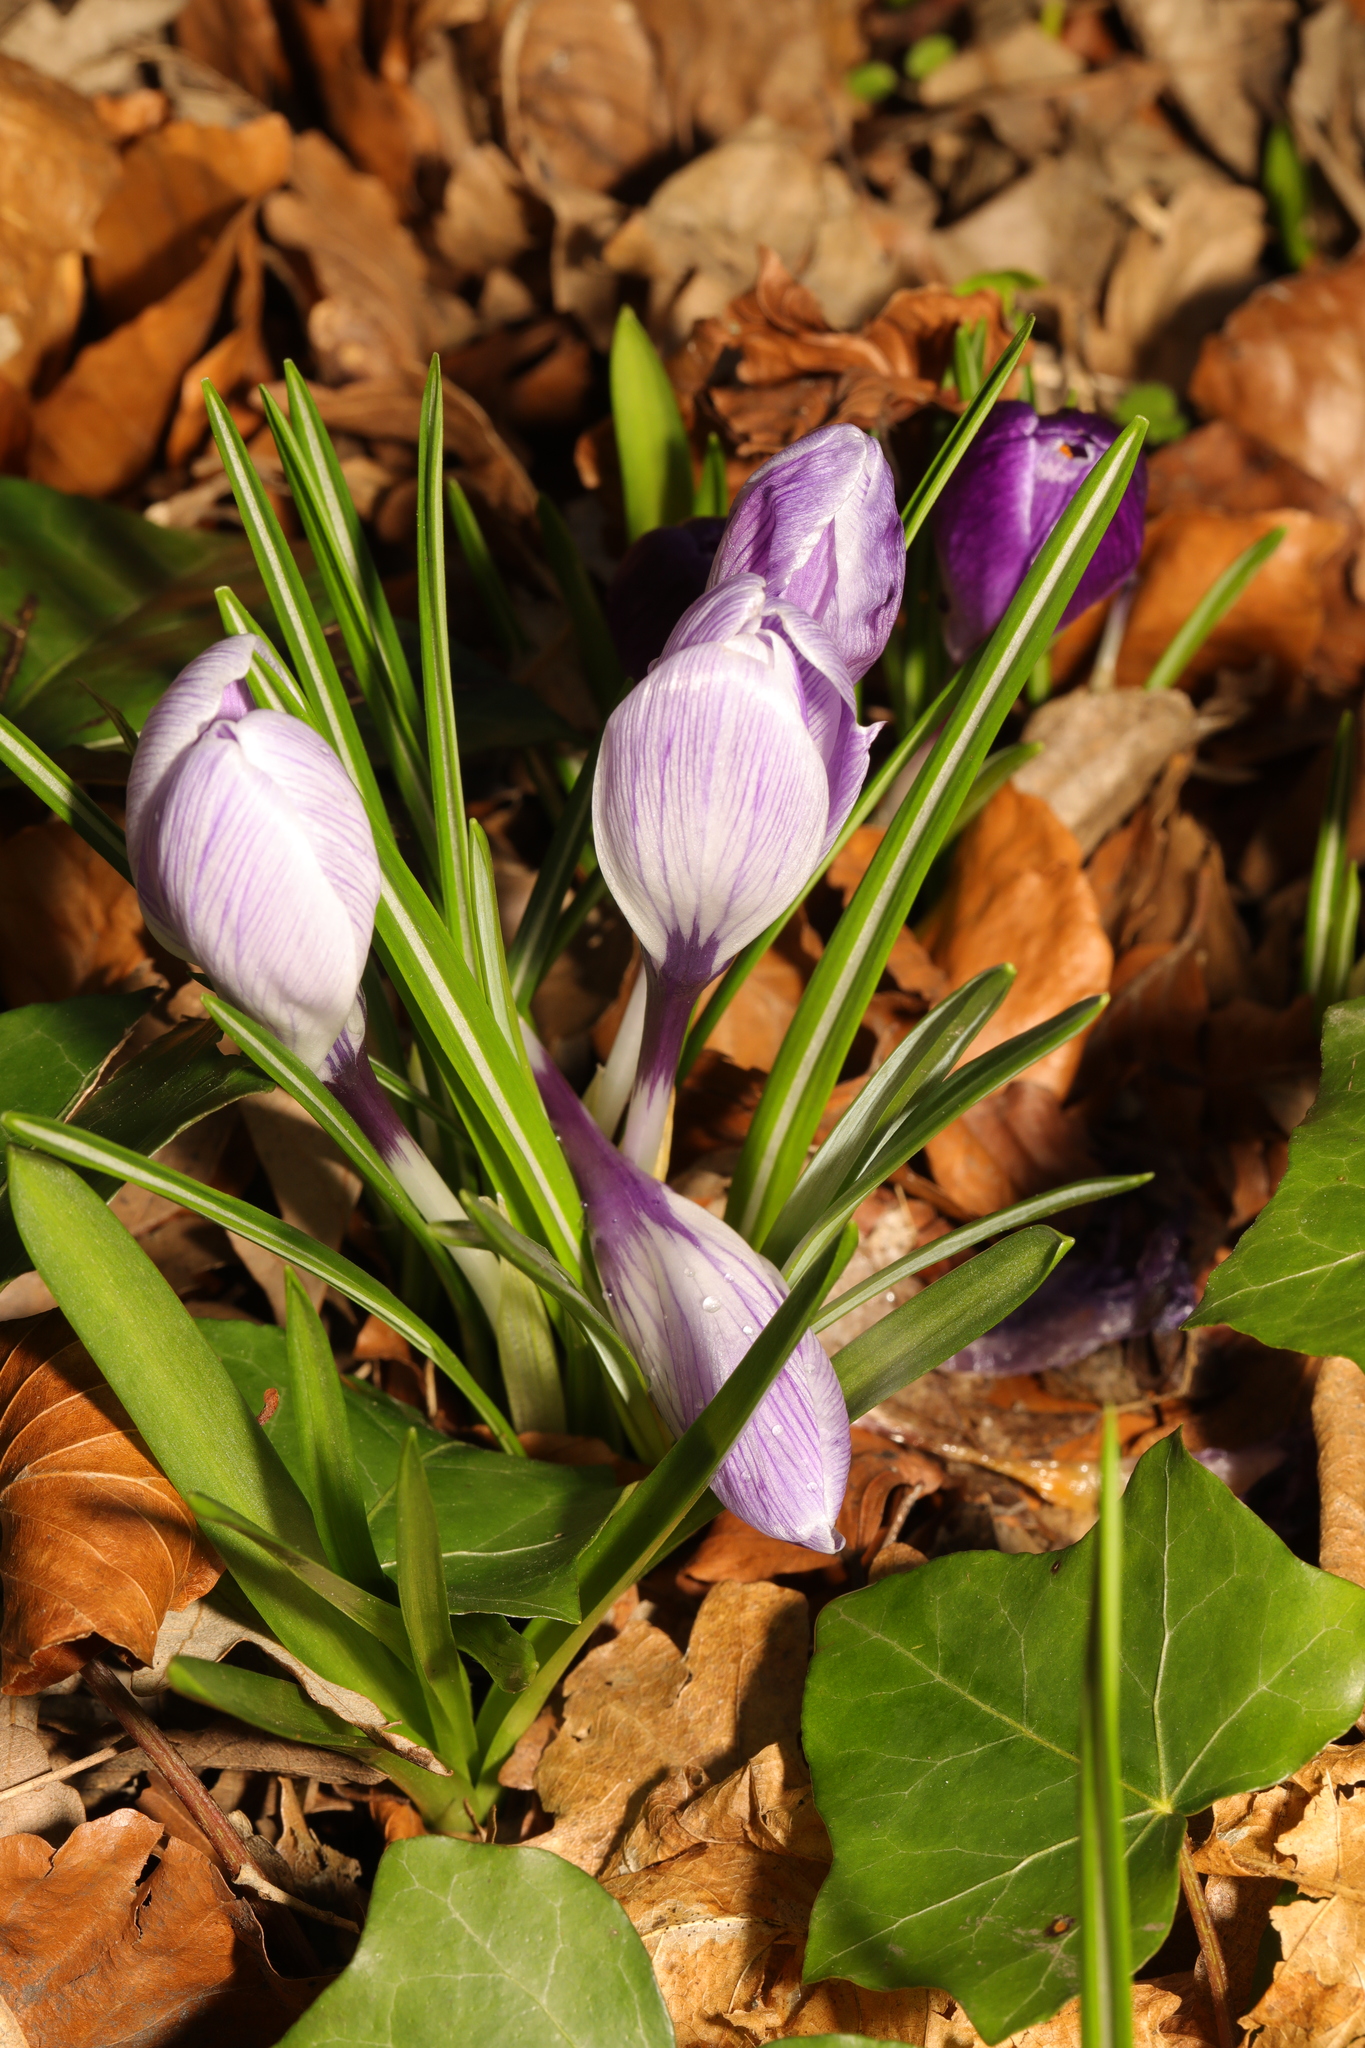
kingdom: Plantae
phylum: Tracheophyta
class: Liliopsida
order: Asparagales
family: Iridaceae
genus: Crocus
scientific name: Crocus neapolitanus
